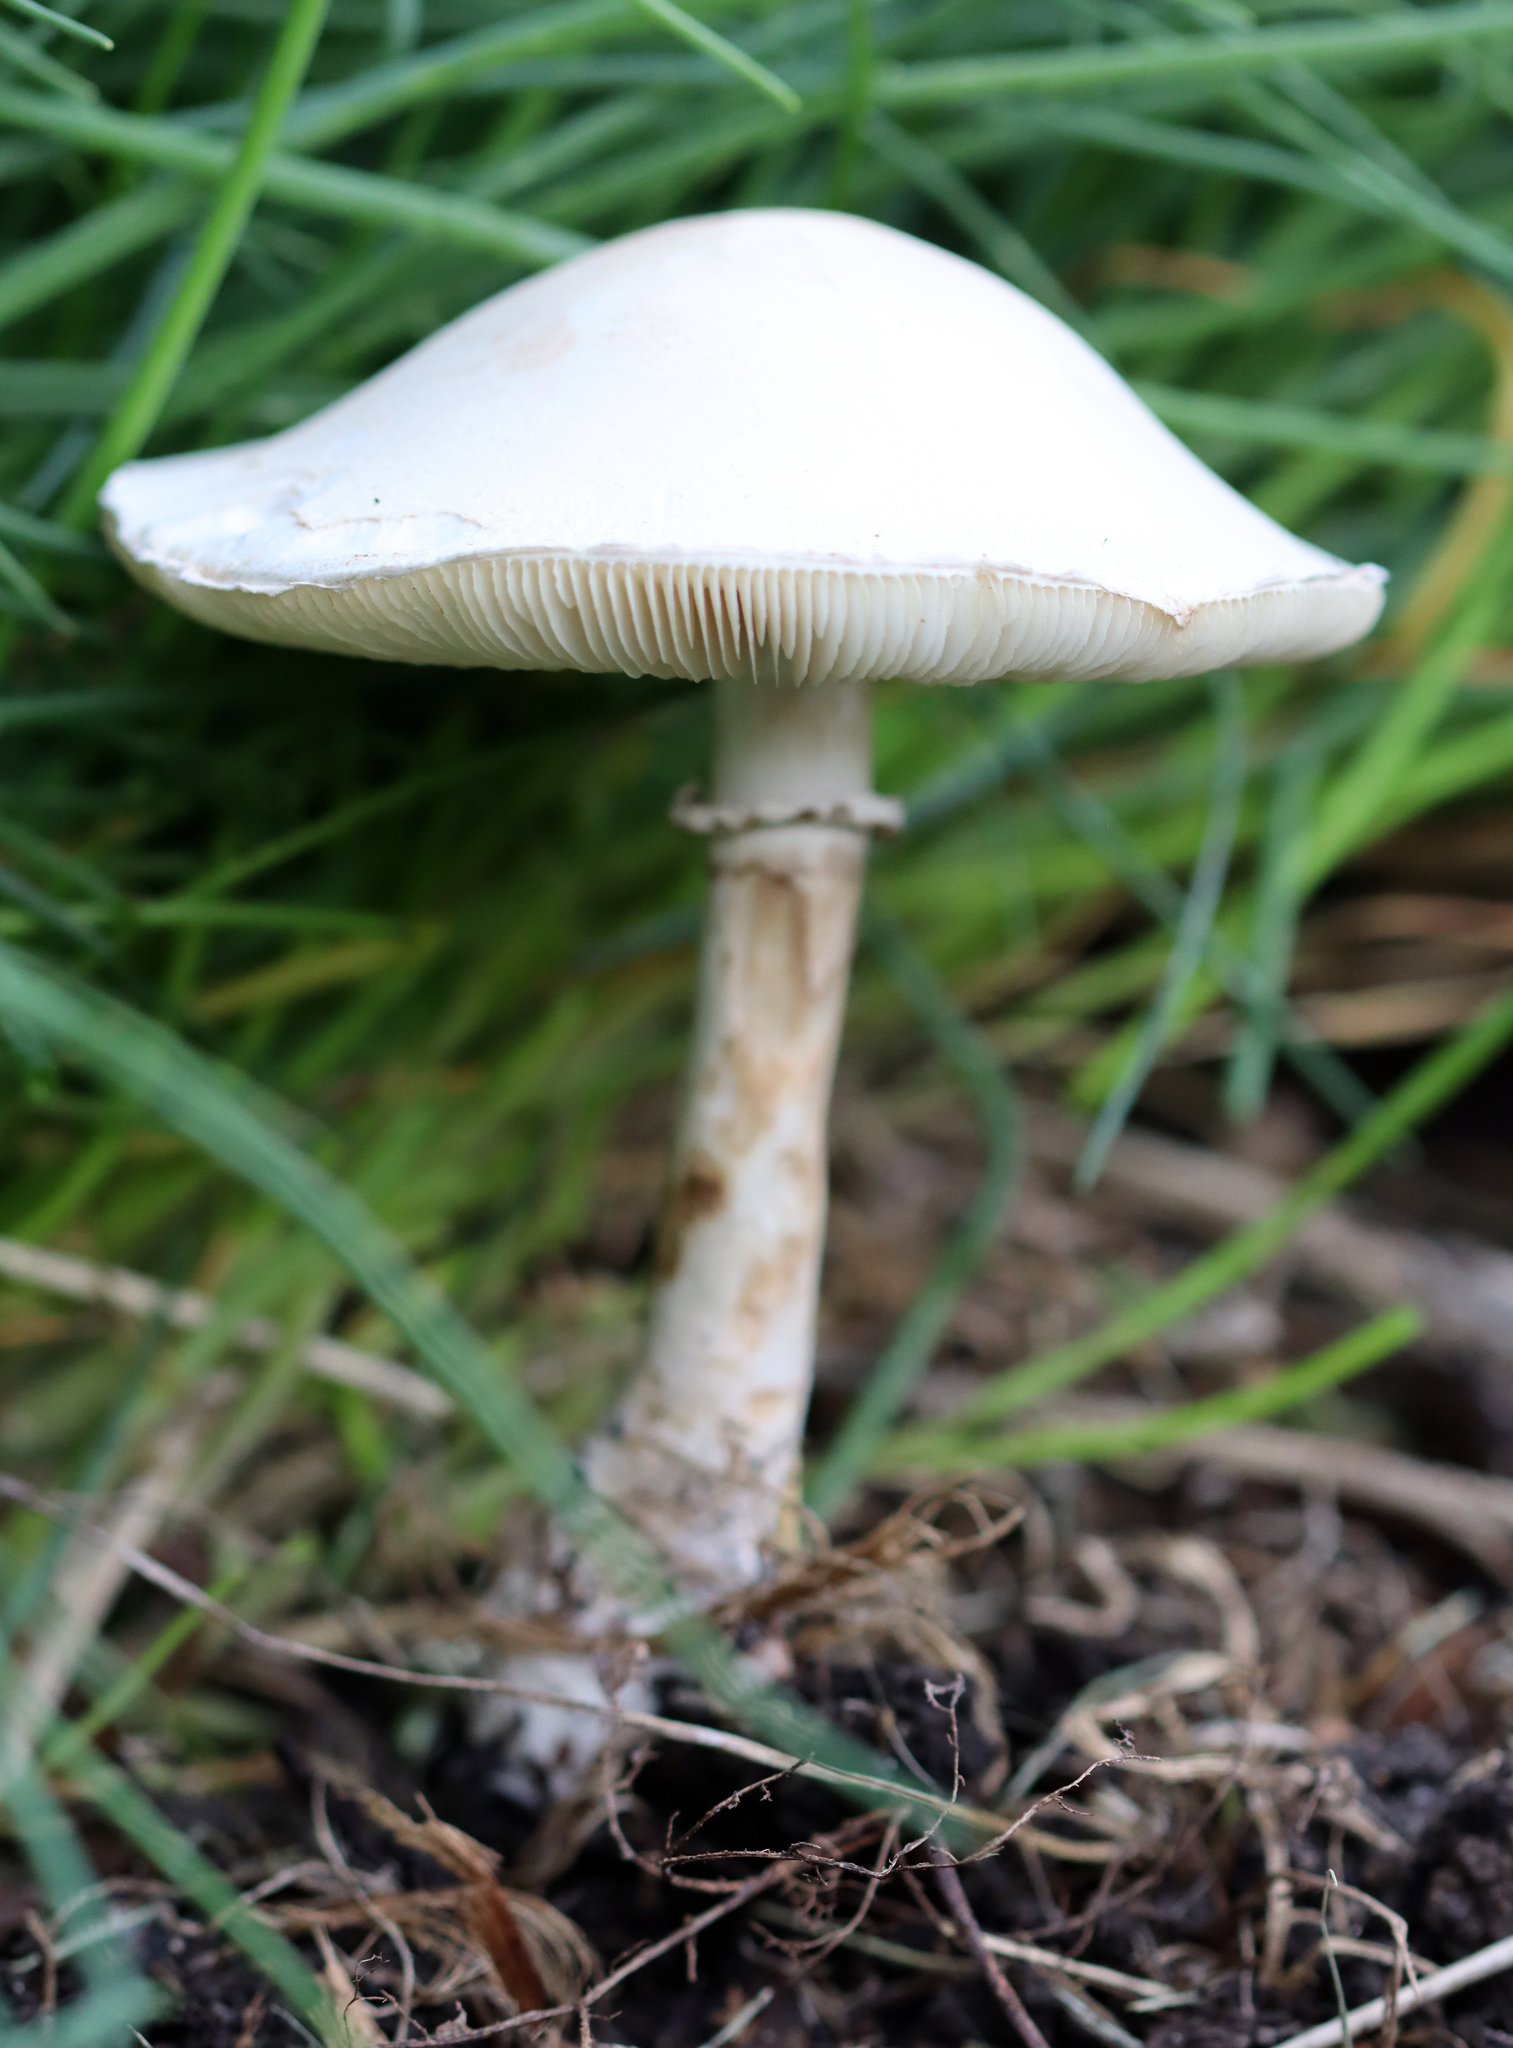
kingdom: Fungi
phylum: Basidiomycota
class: Agaricomycetes
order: Agaricales
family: Agaricaceae
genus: Leucoagaricus
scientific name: Leucoagaricus leucothites
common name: White dapperling
